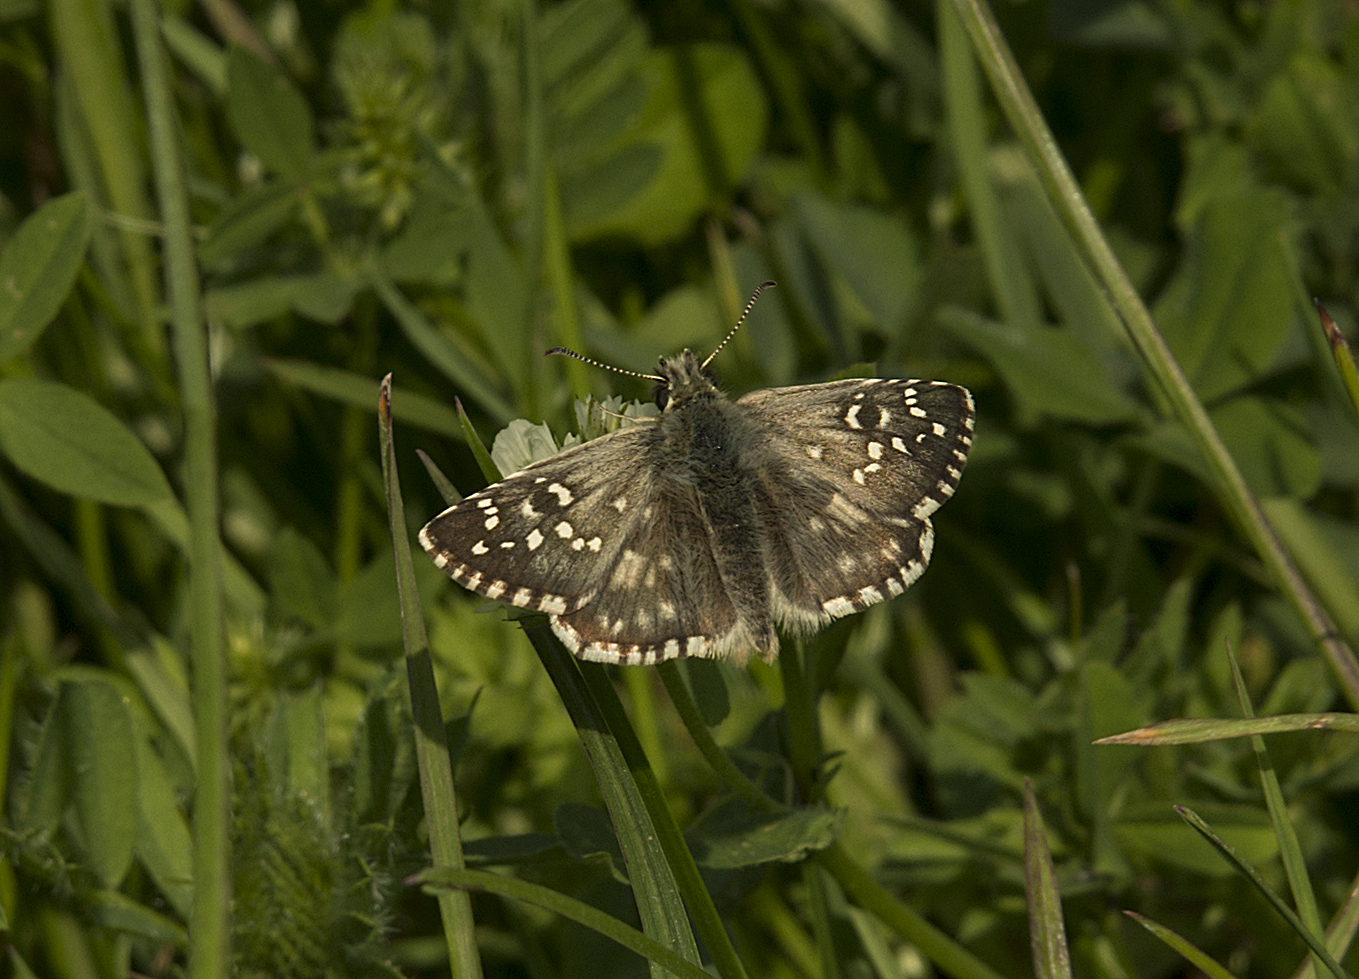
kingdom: Animalia
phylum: Arthropoda
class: Insecta
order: Lepidoptera
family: Hesperiidae
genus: Pyrgus
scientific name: Pyrgus armoricanus
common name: Oberthür's grizzled skipper
